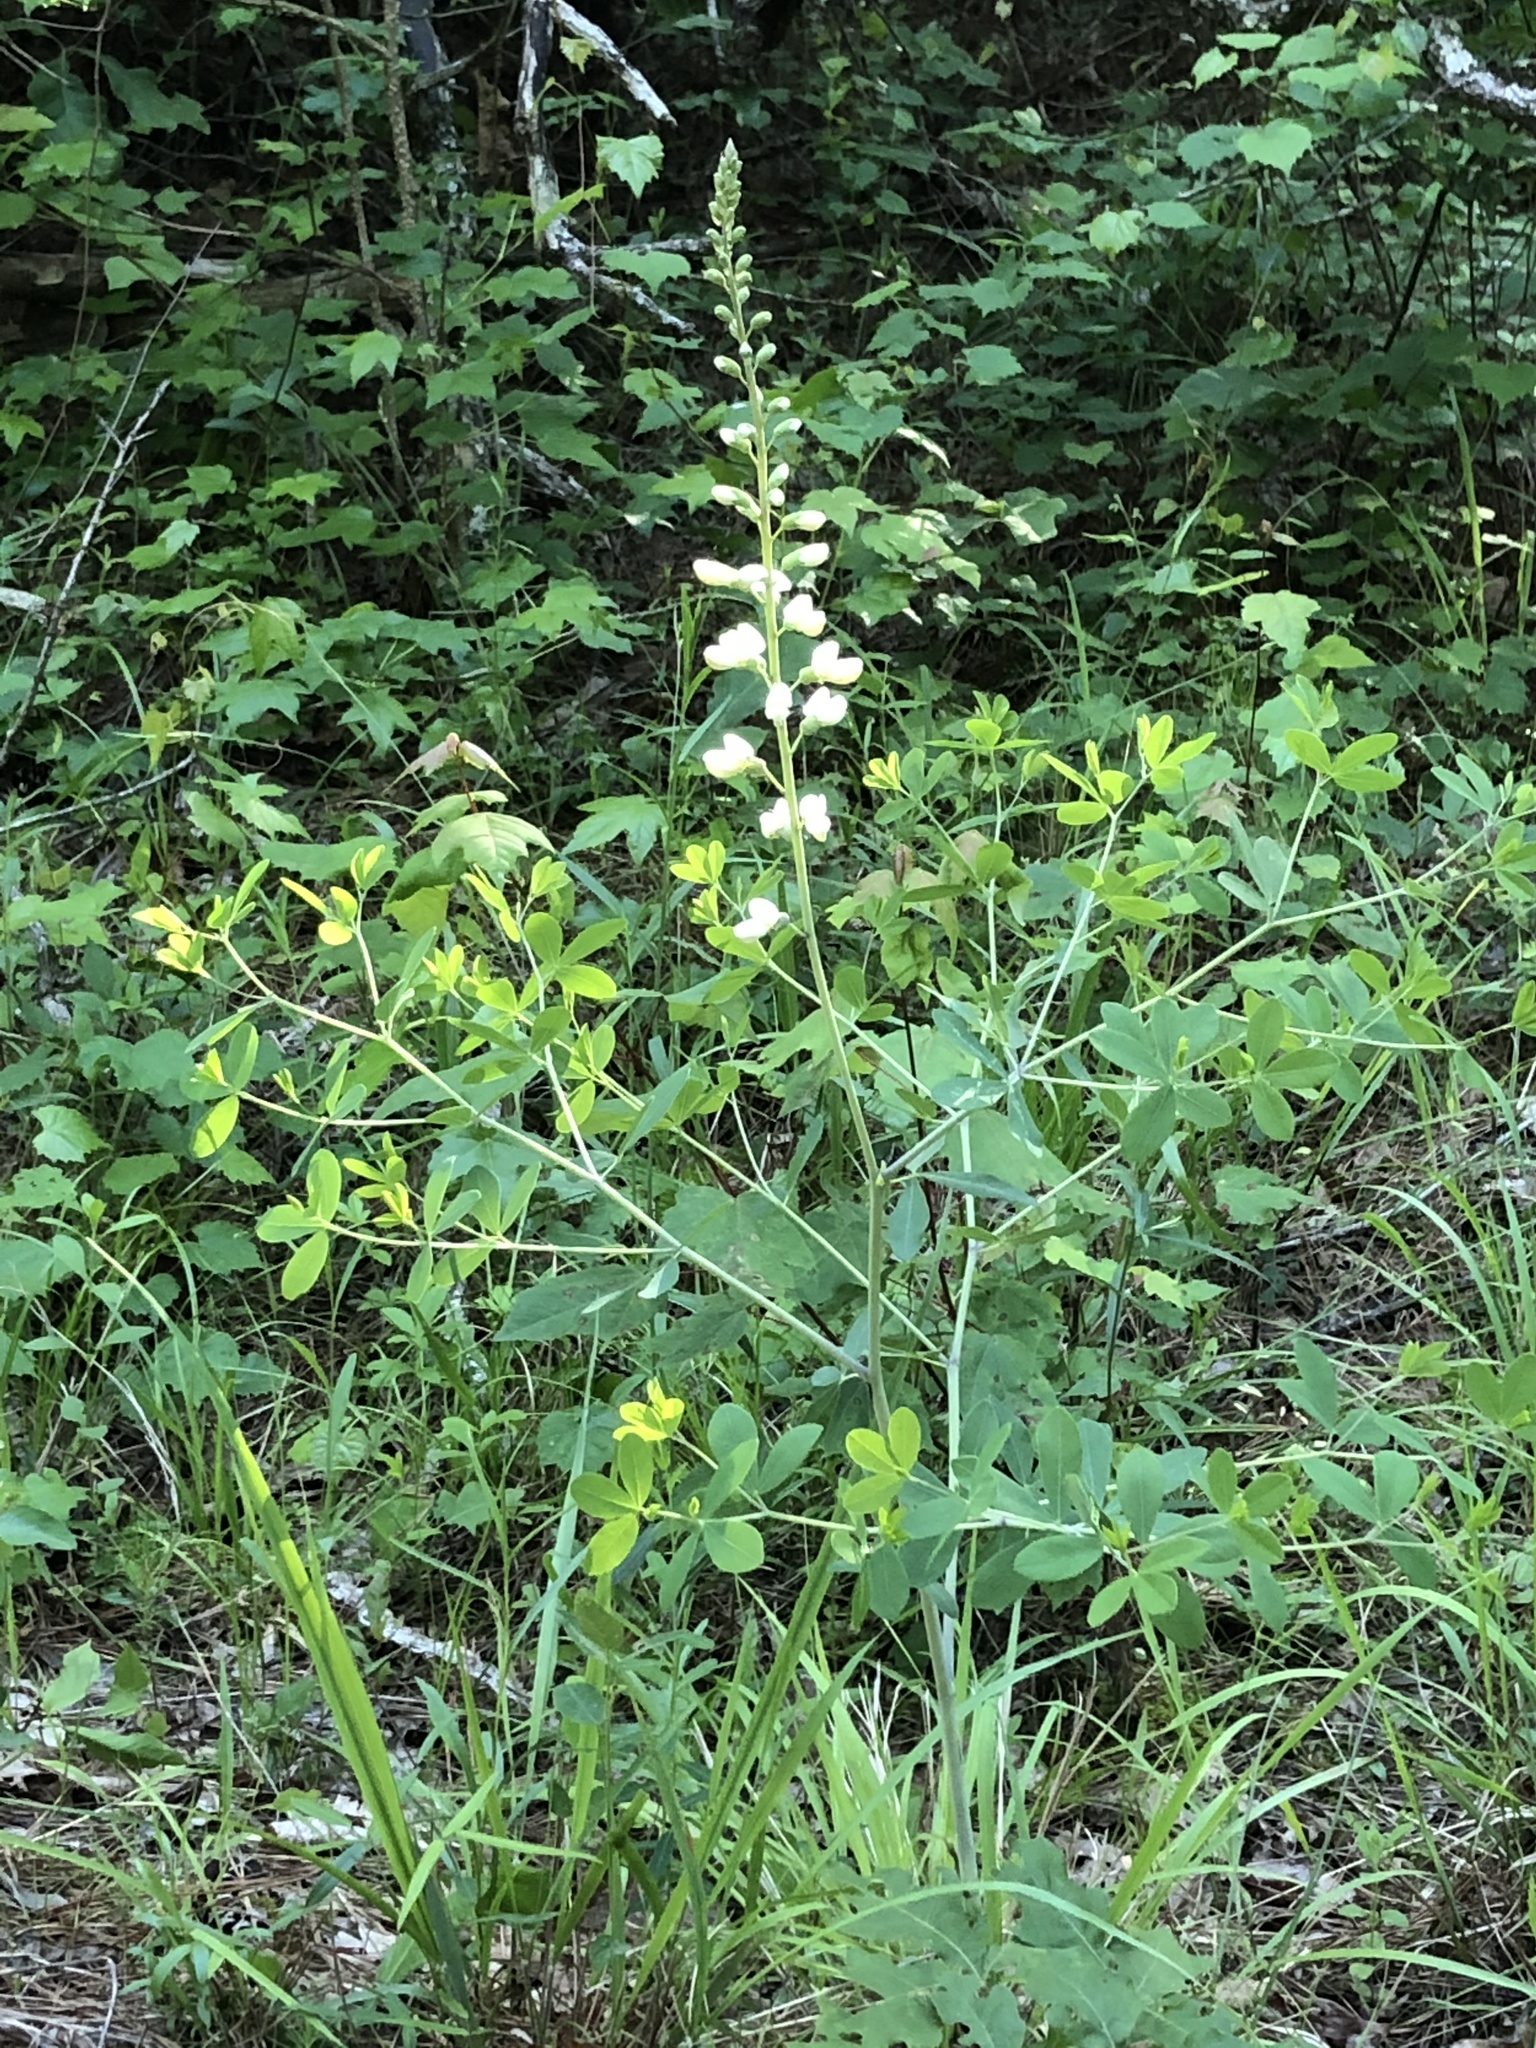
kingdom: Plantae
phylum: Tracheophyta
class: Magnoliopsida
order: Fabales
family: Fabaceae
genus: Baptisia
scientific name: Baptisia alba
